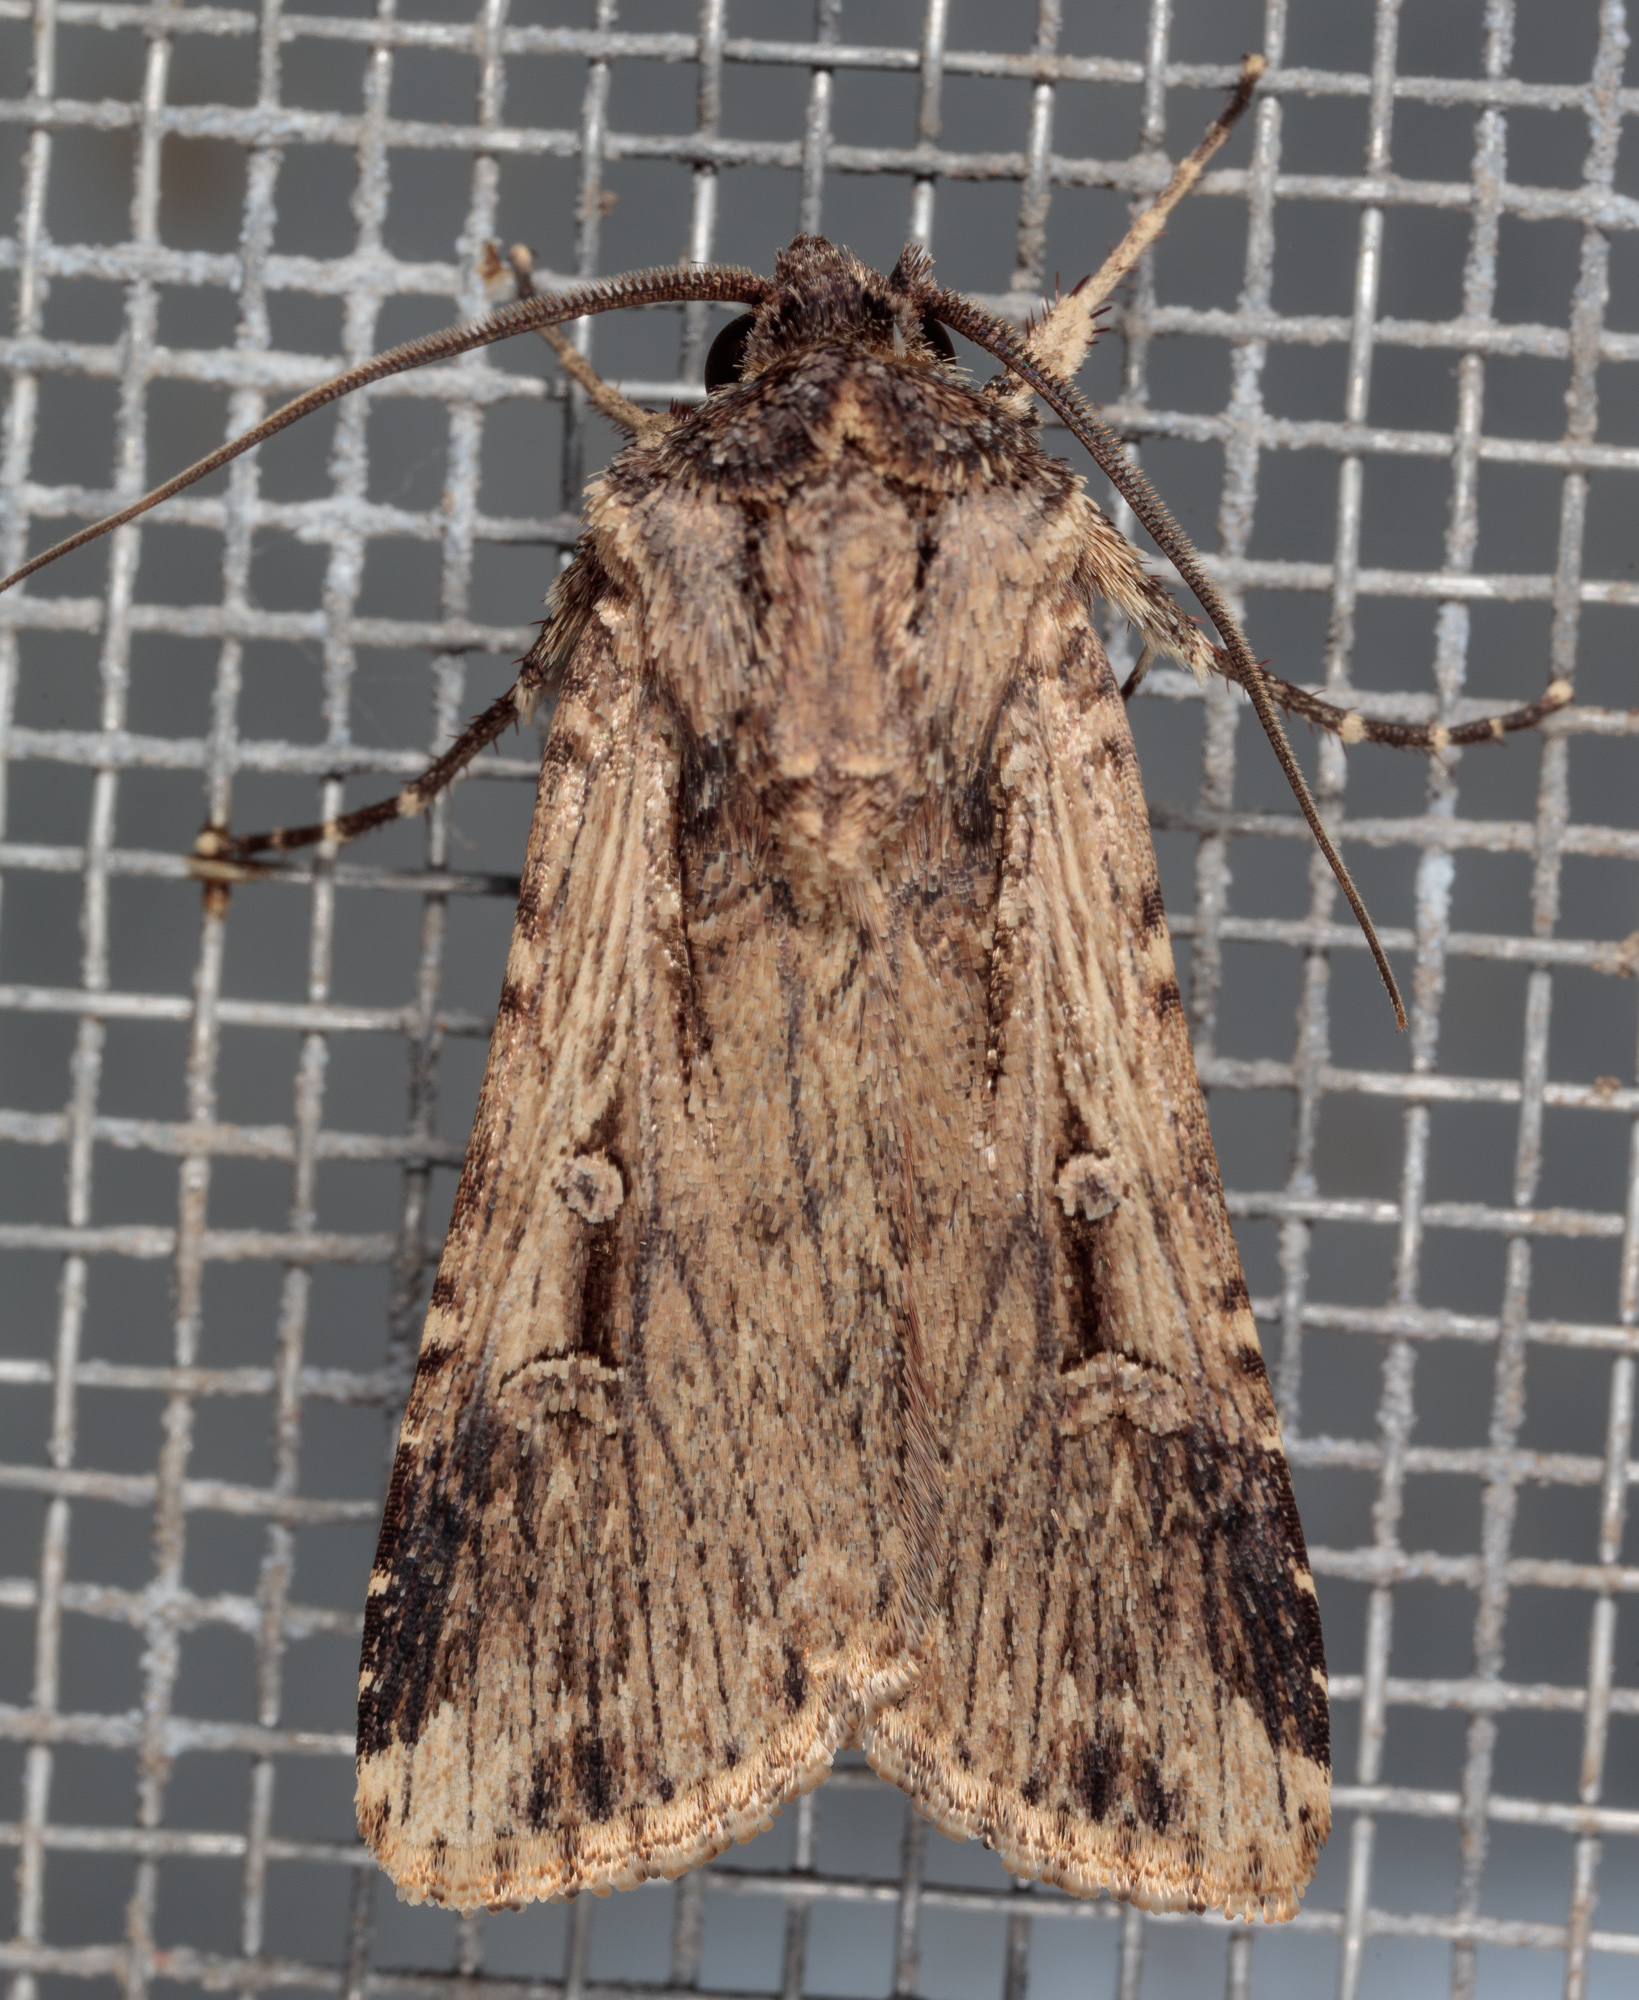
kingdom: Animalia
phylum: Arthropoda
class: Insecta
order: Lepidoptera
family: Noctuidae
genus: Feltia
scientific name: Feltia subterranea
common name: Granulate cutworm
